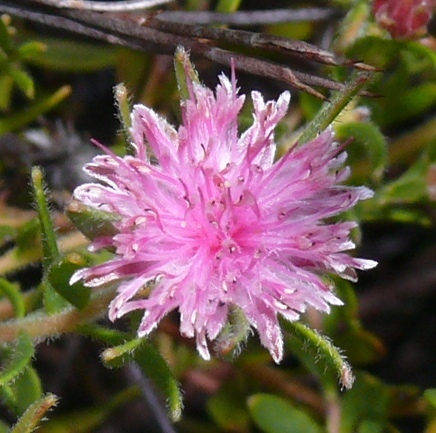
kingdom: Plantae
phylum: Tracheophyta
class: Magnoliopsida
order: Proteales
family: Proteaceae
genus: Diastella
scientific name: Diastella divaricata
